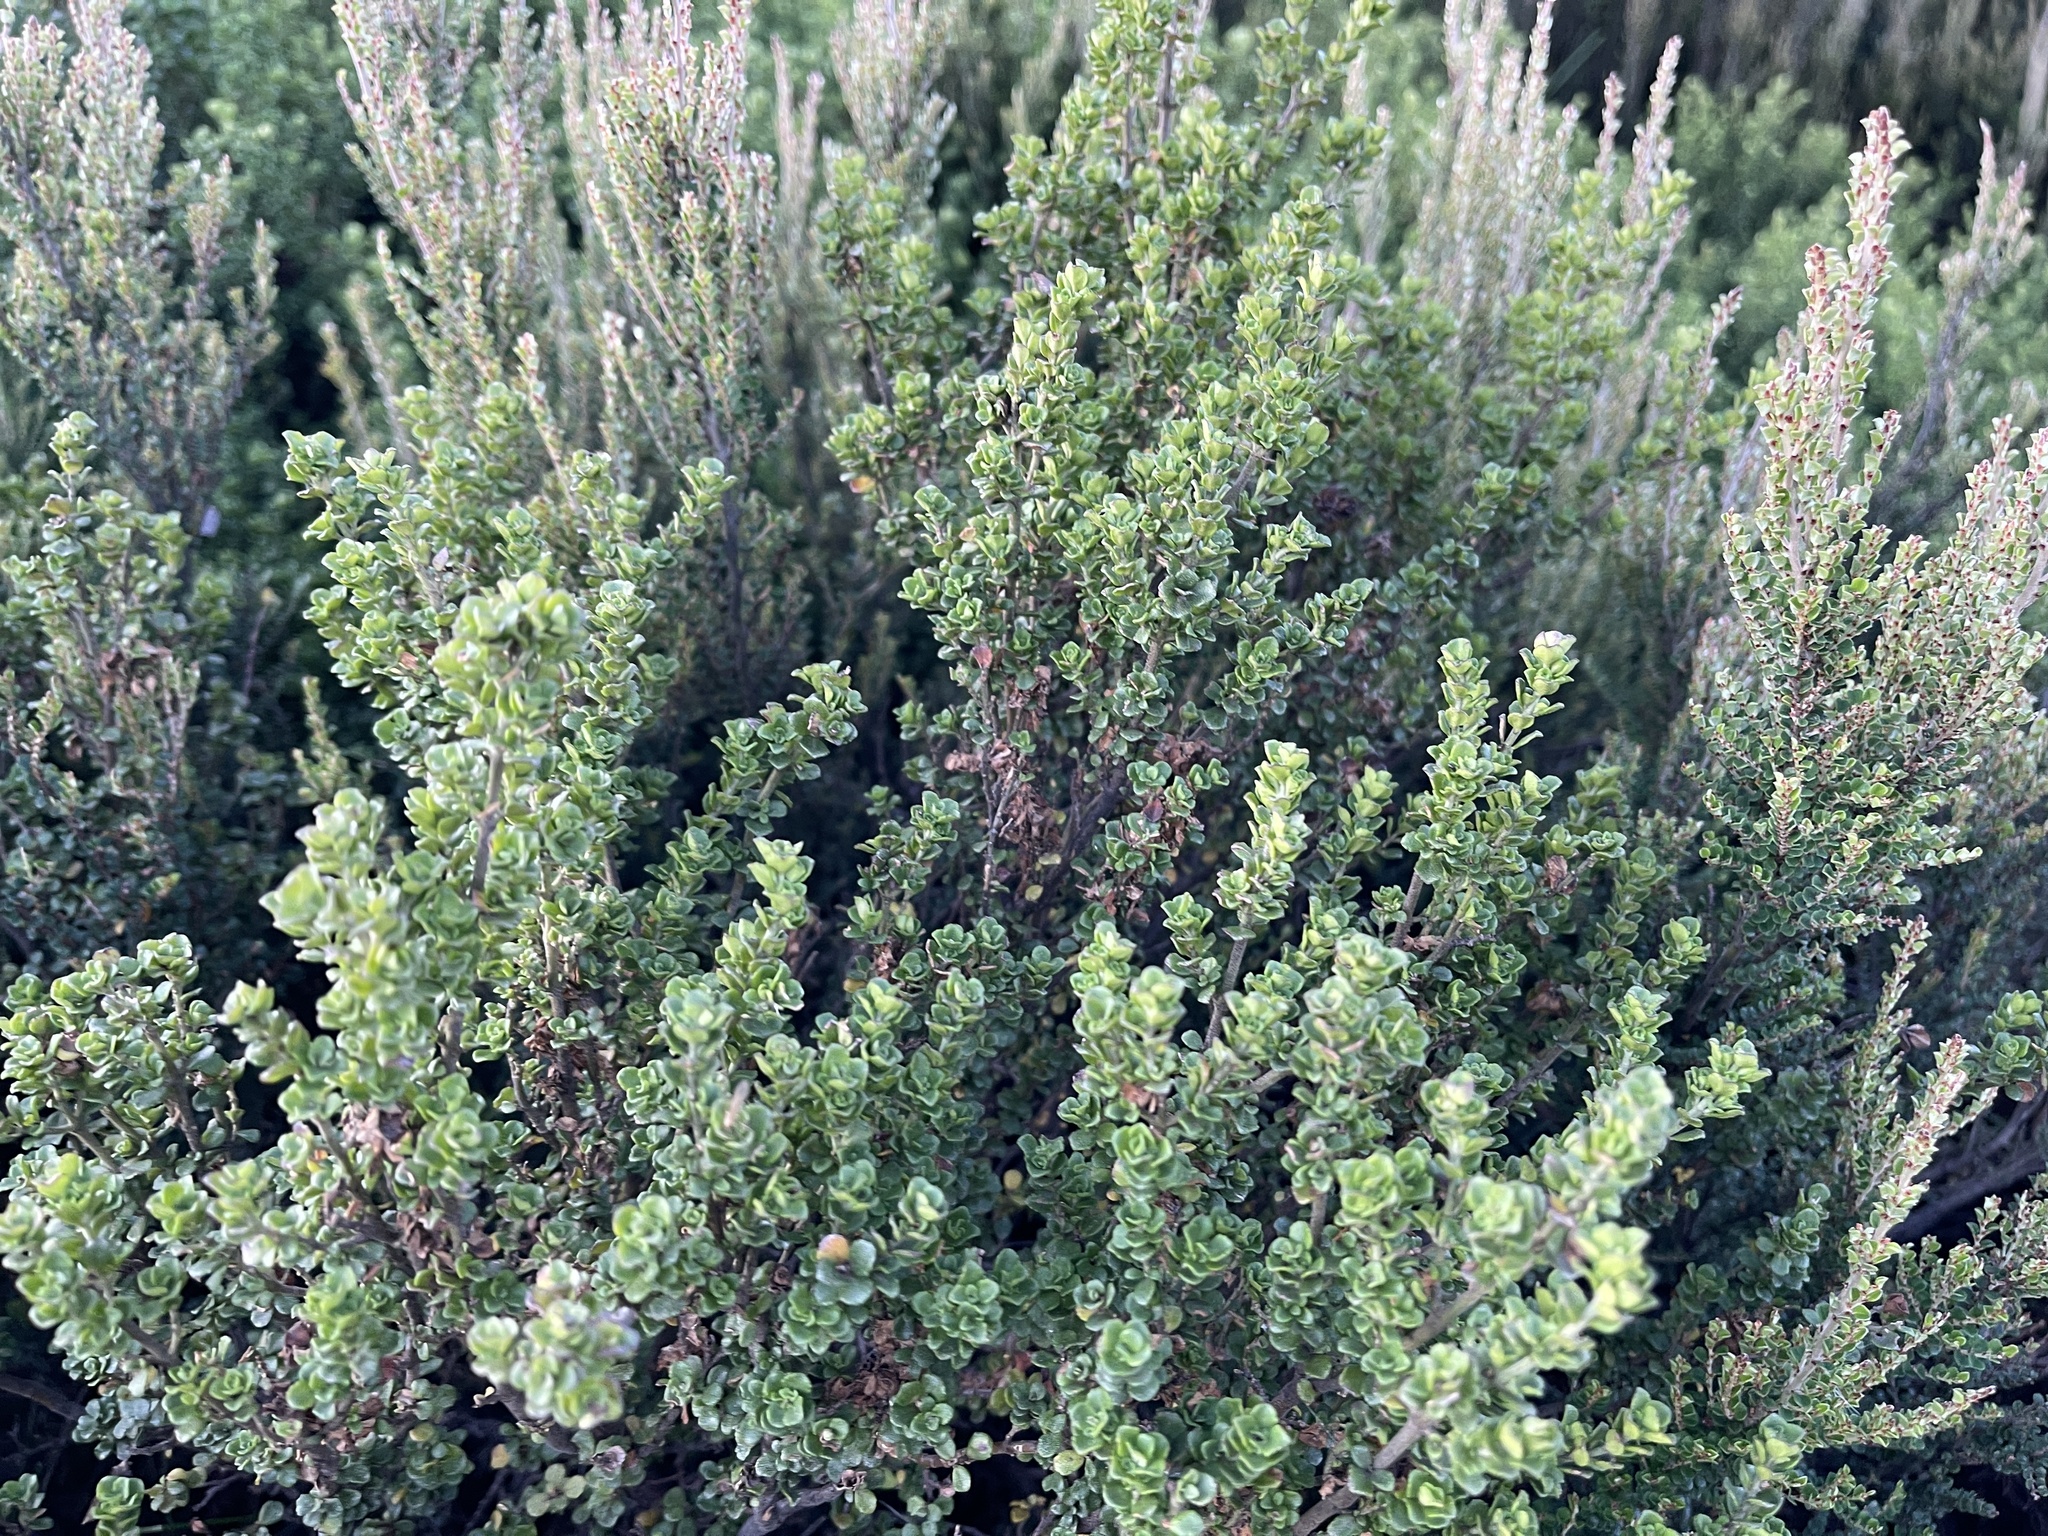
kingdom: Plantae
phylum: Tracheophyta
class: Magnoliopsida
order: Lamiales
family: Lamiaceae
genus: Prostanthera
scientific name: Prostanthera cuneata
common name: Alpine mintbush
